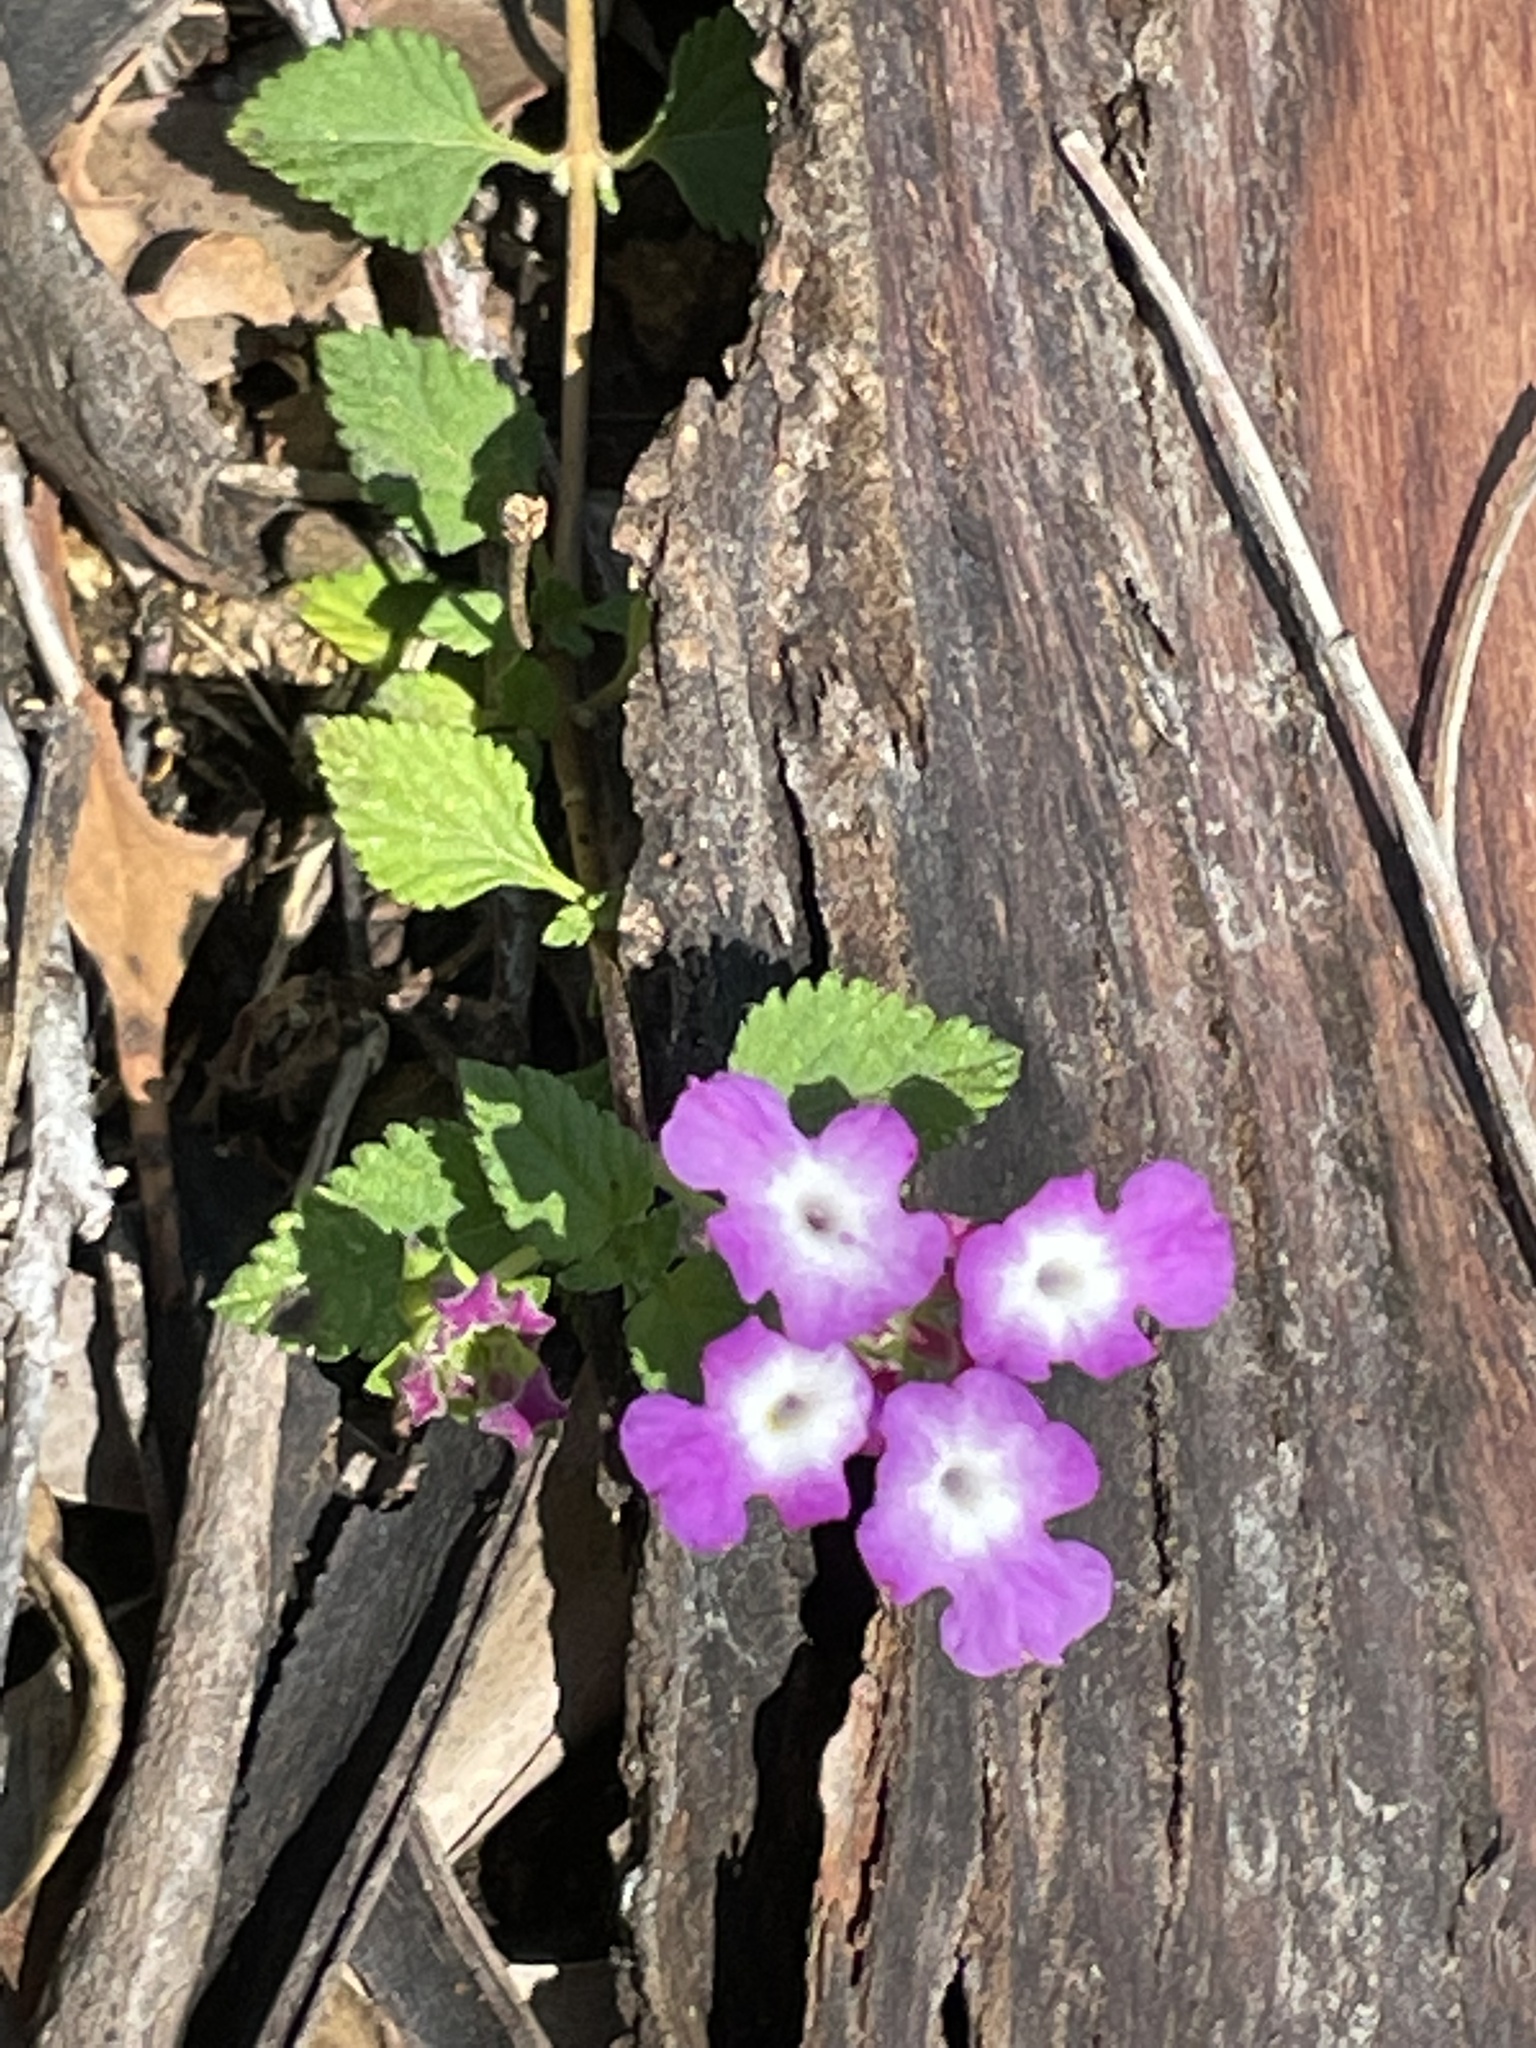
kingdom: Plantae
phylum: Tracheophyta
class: Magnoliopsida
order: Lamiales
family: Verbenaceae
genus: Lantana
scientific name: Lantana montevidensis
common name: Trailing shrubverbena
